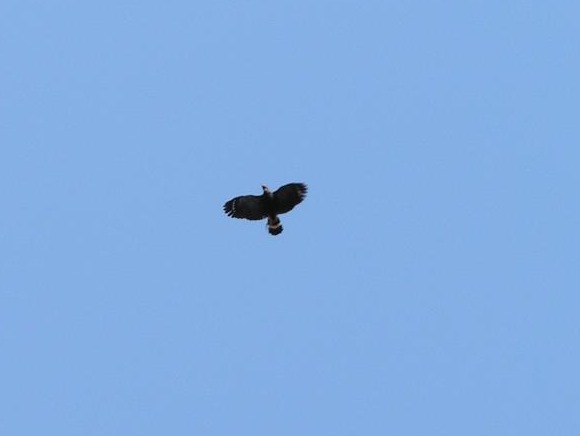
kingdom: Animalia
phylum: Chordata
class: Aves
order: Accipitriformes
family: Accipitridae
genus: Geranospiza
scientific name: Geranospiza caerulescens
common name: Crane hawk
